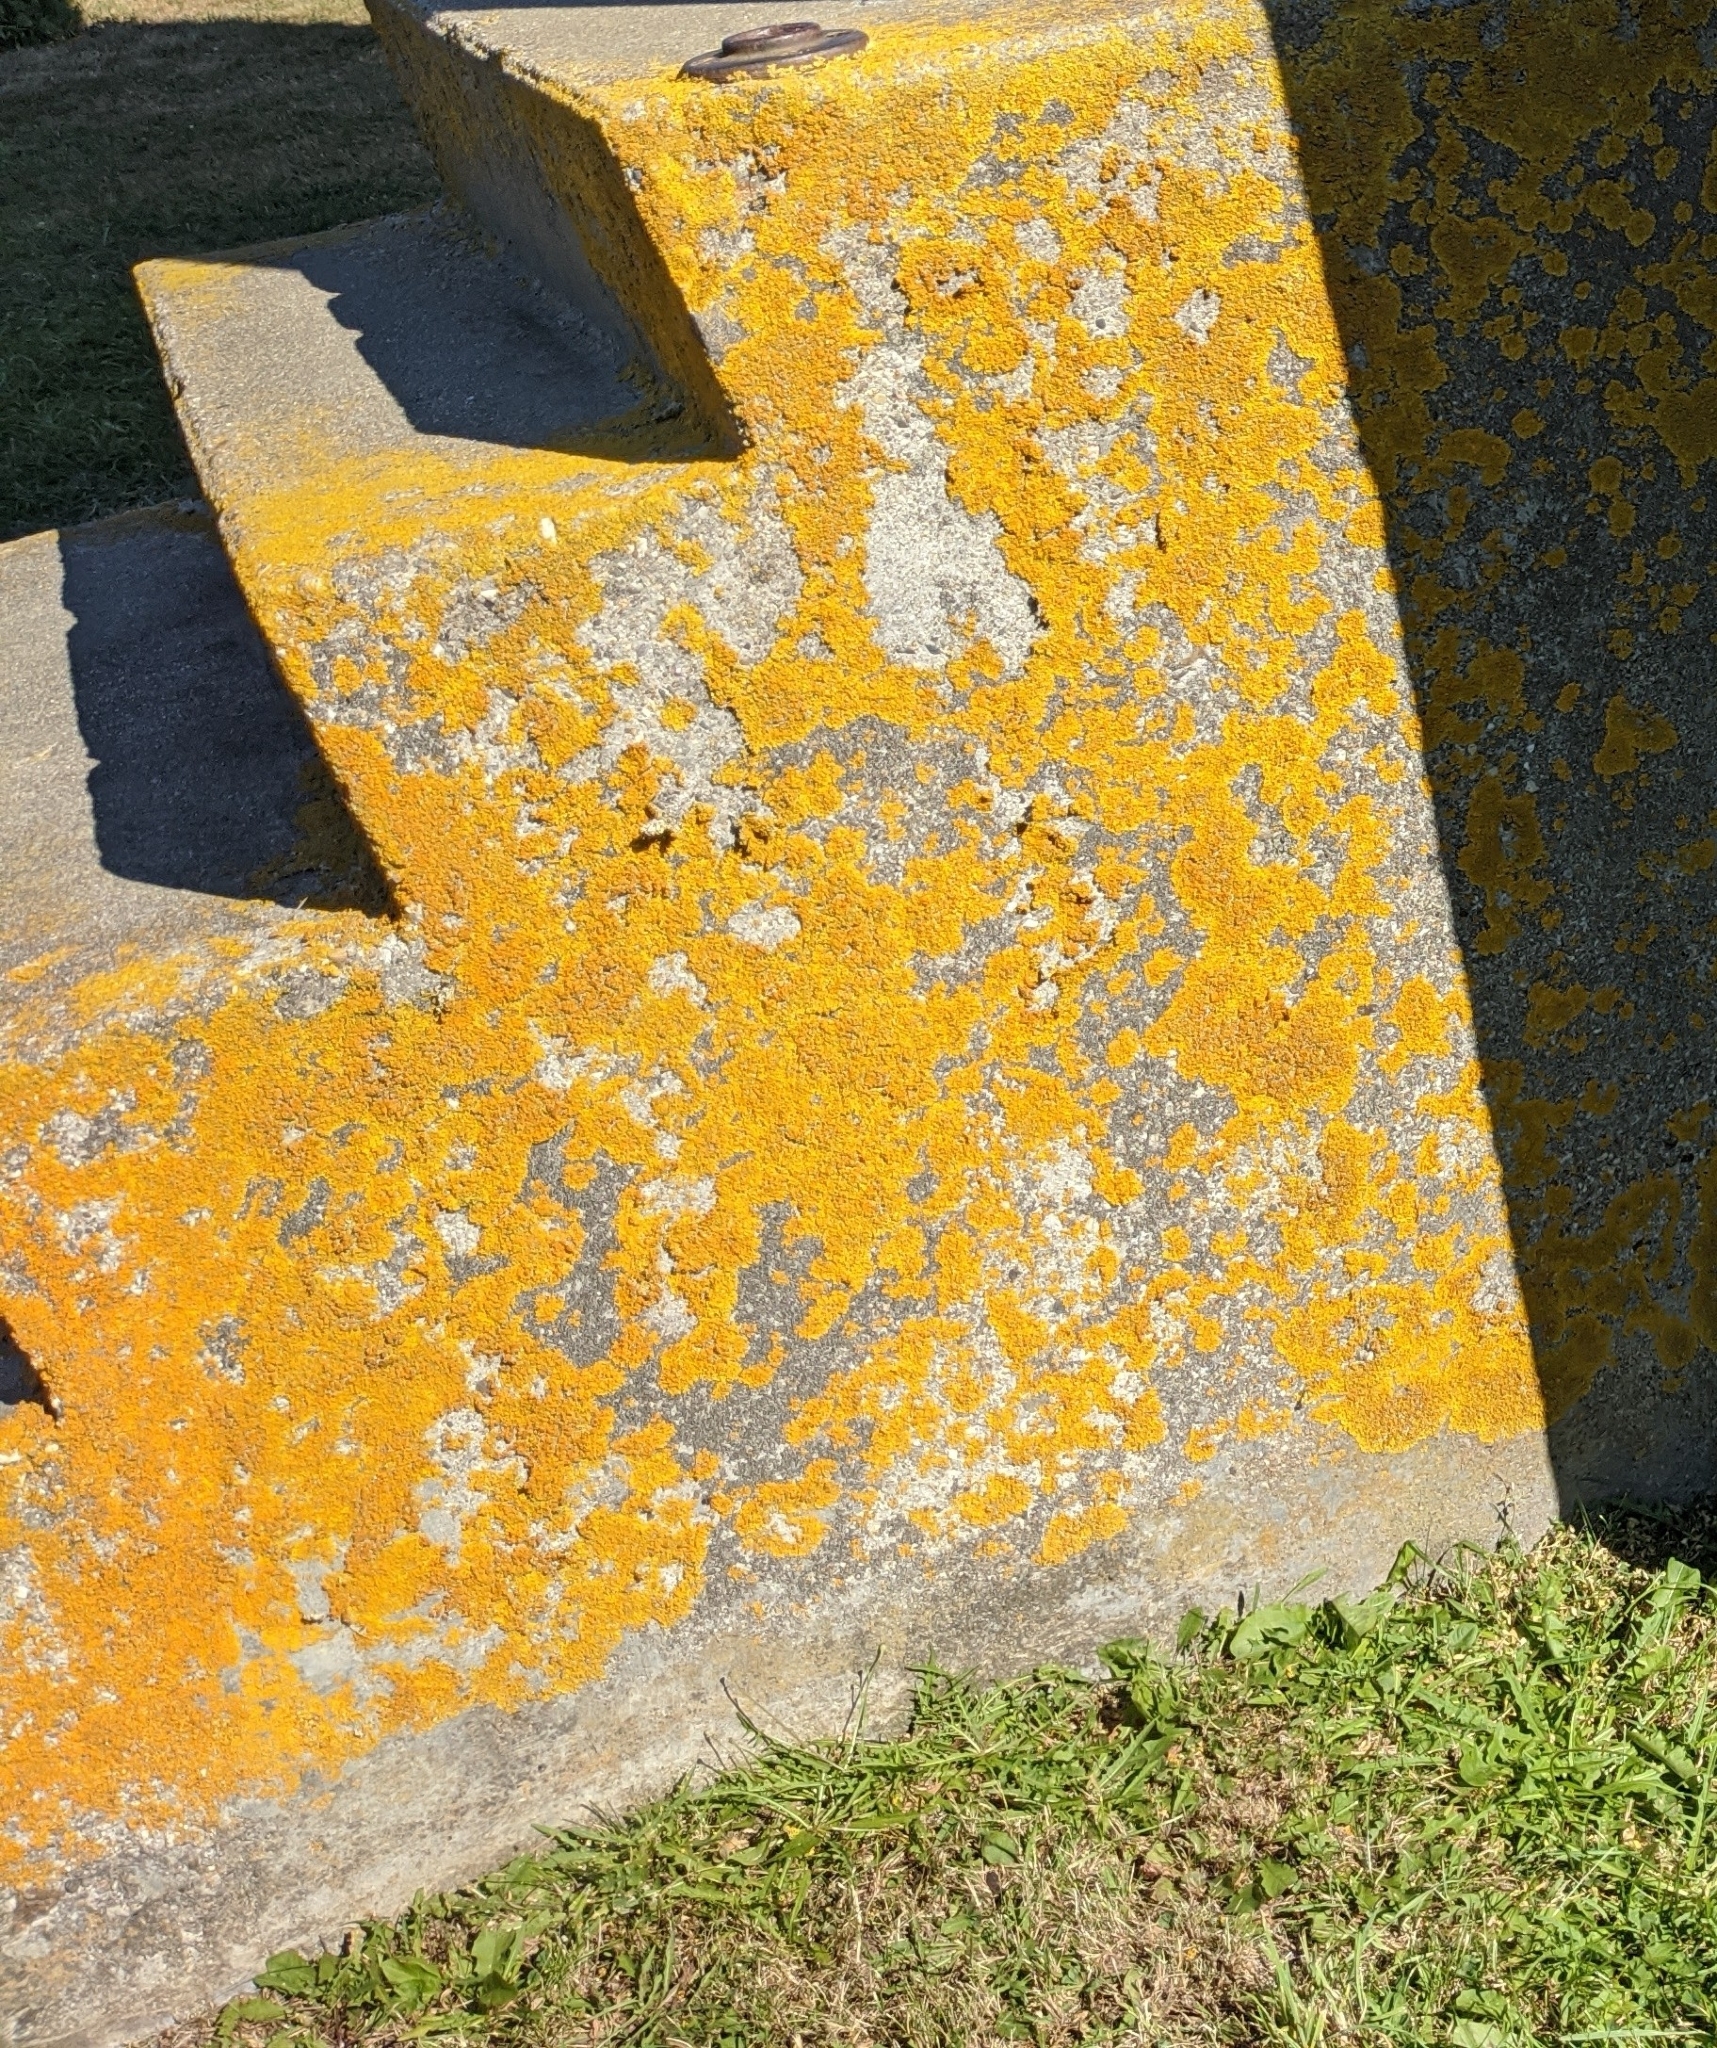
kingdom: Fungi
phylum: Ascomycota
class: Lecanoromycetes
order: Teloschistales
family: Teloschistaceae
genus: Xanthoria
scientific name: Xanthoria parietina
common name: Common orange lichen
